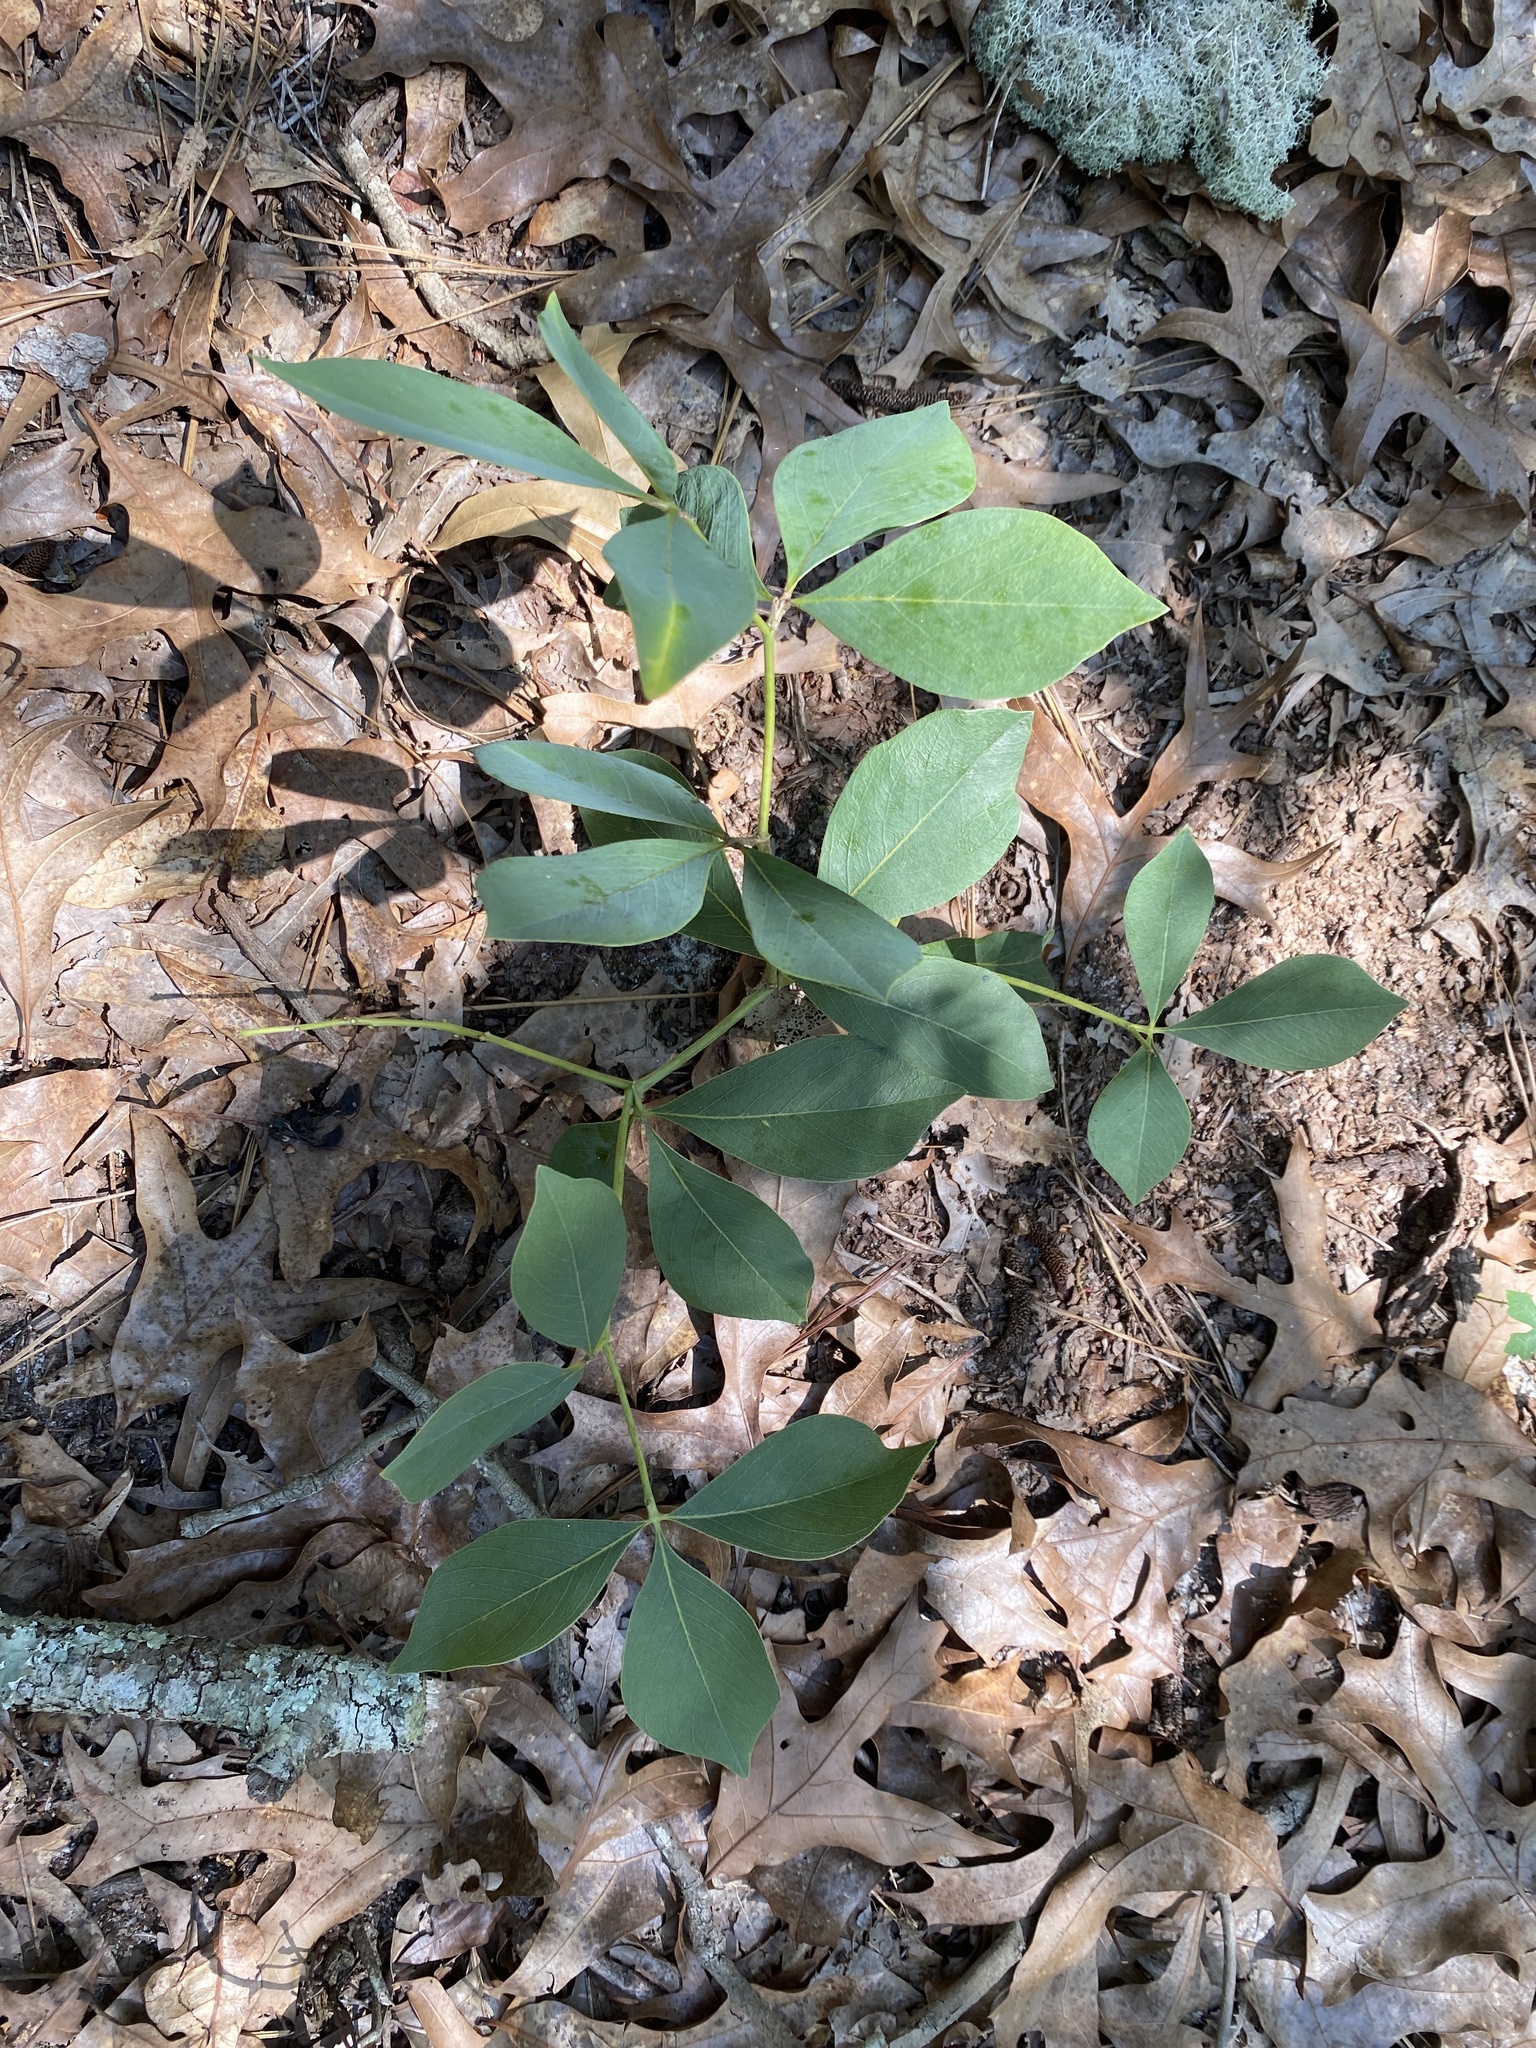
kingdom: Plantae
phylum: Tracheophyta
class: Magnoliopsida
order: Fabales
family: Fabaceae
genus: Baptisia
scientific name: Baptisia cinerea
